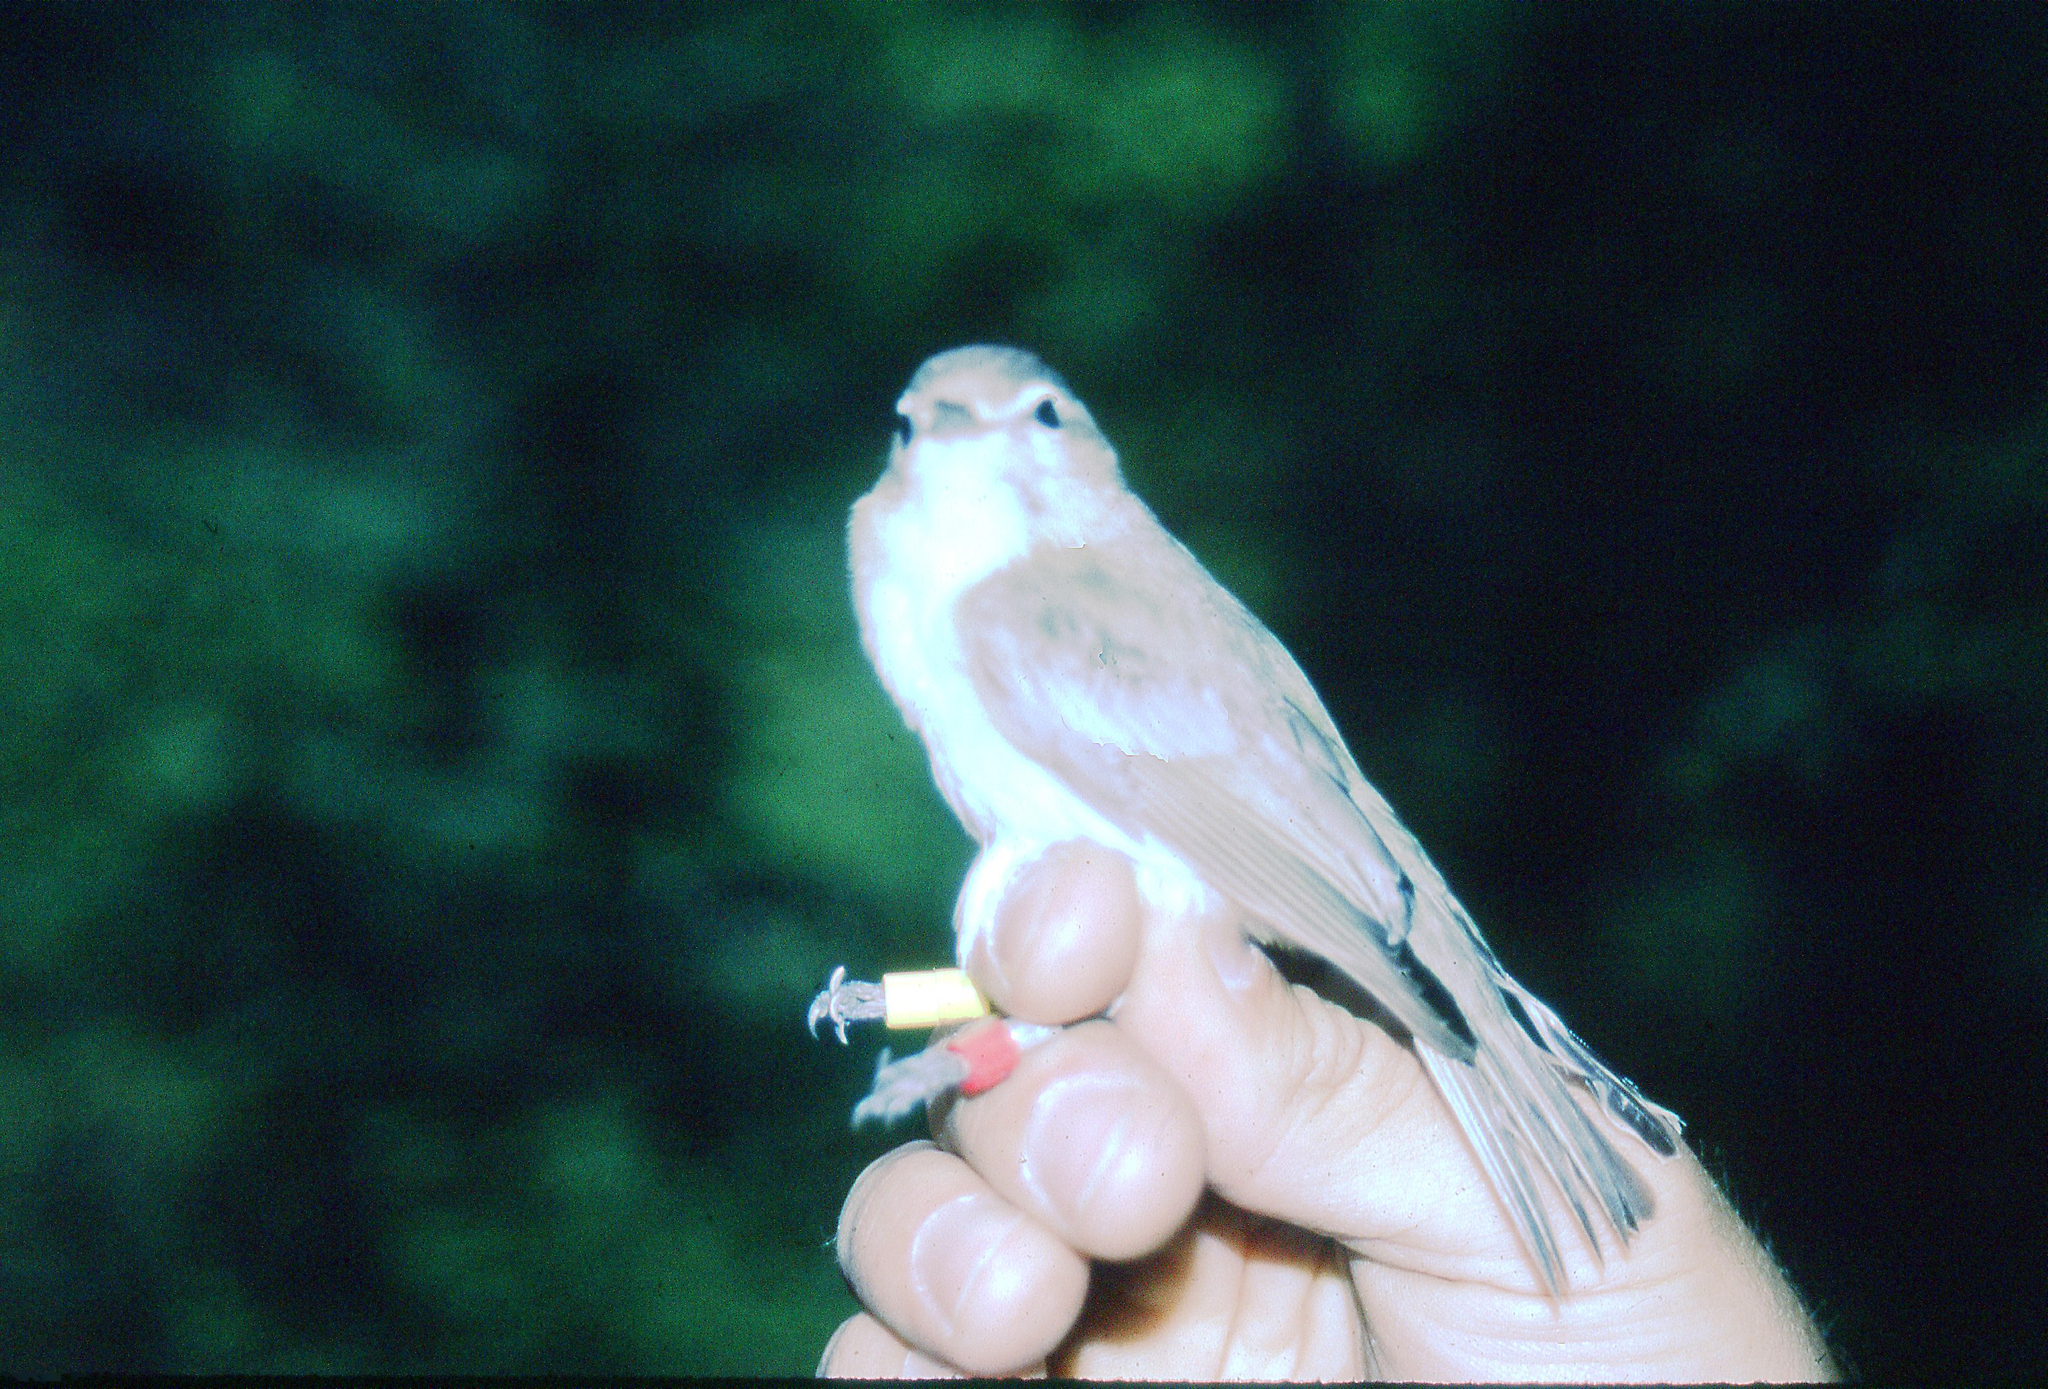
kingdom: Animalia
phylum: Chordata
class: Aves
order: Passeriformes
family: Vireonidae
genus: Vireo
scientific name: Vireo gilvus
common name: Warbling vireo
